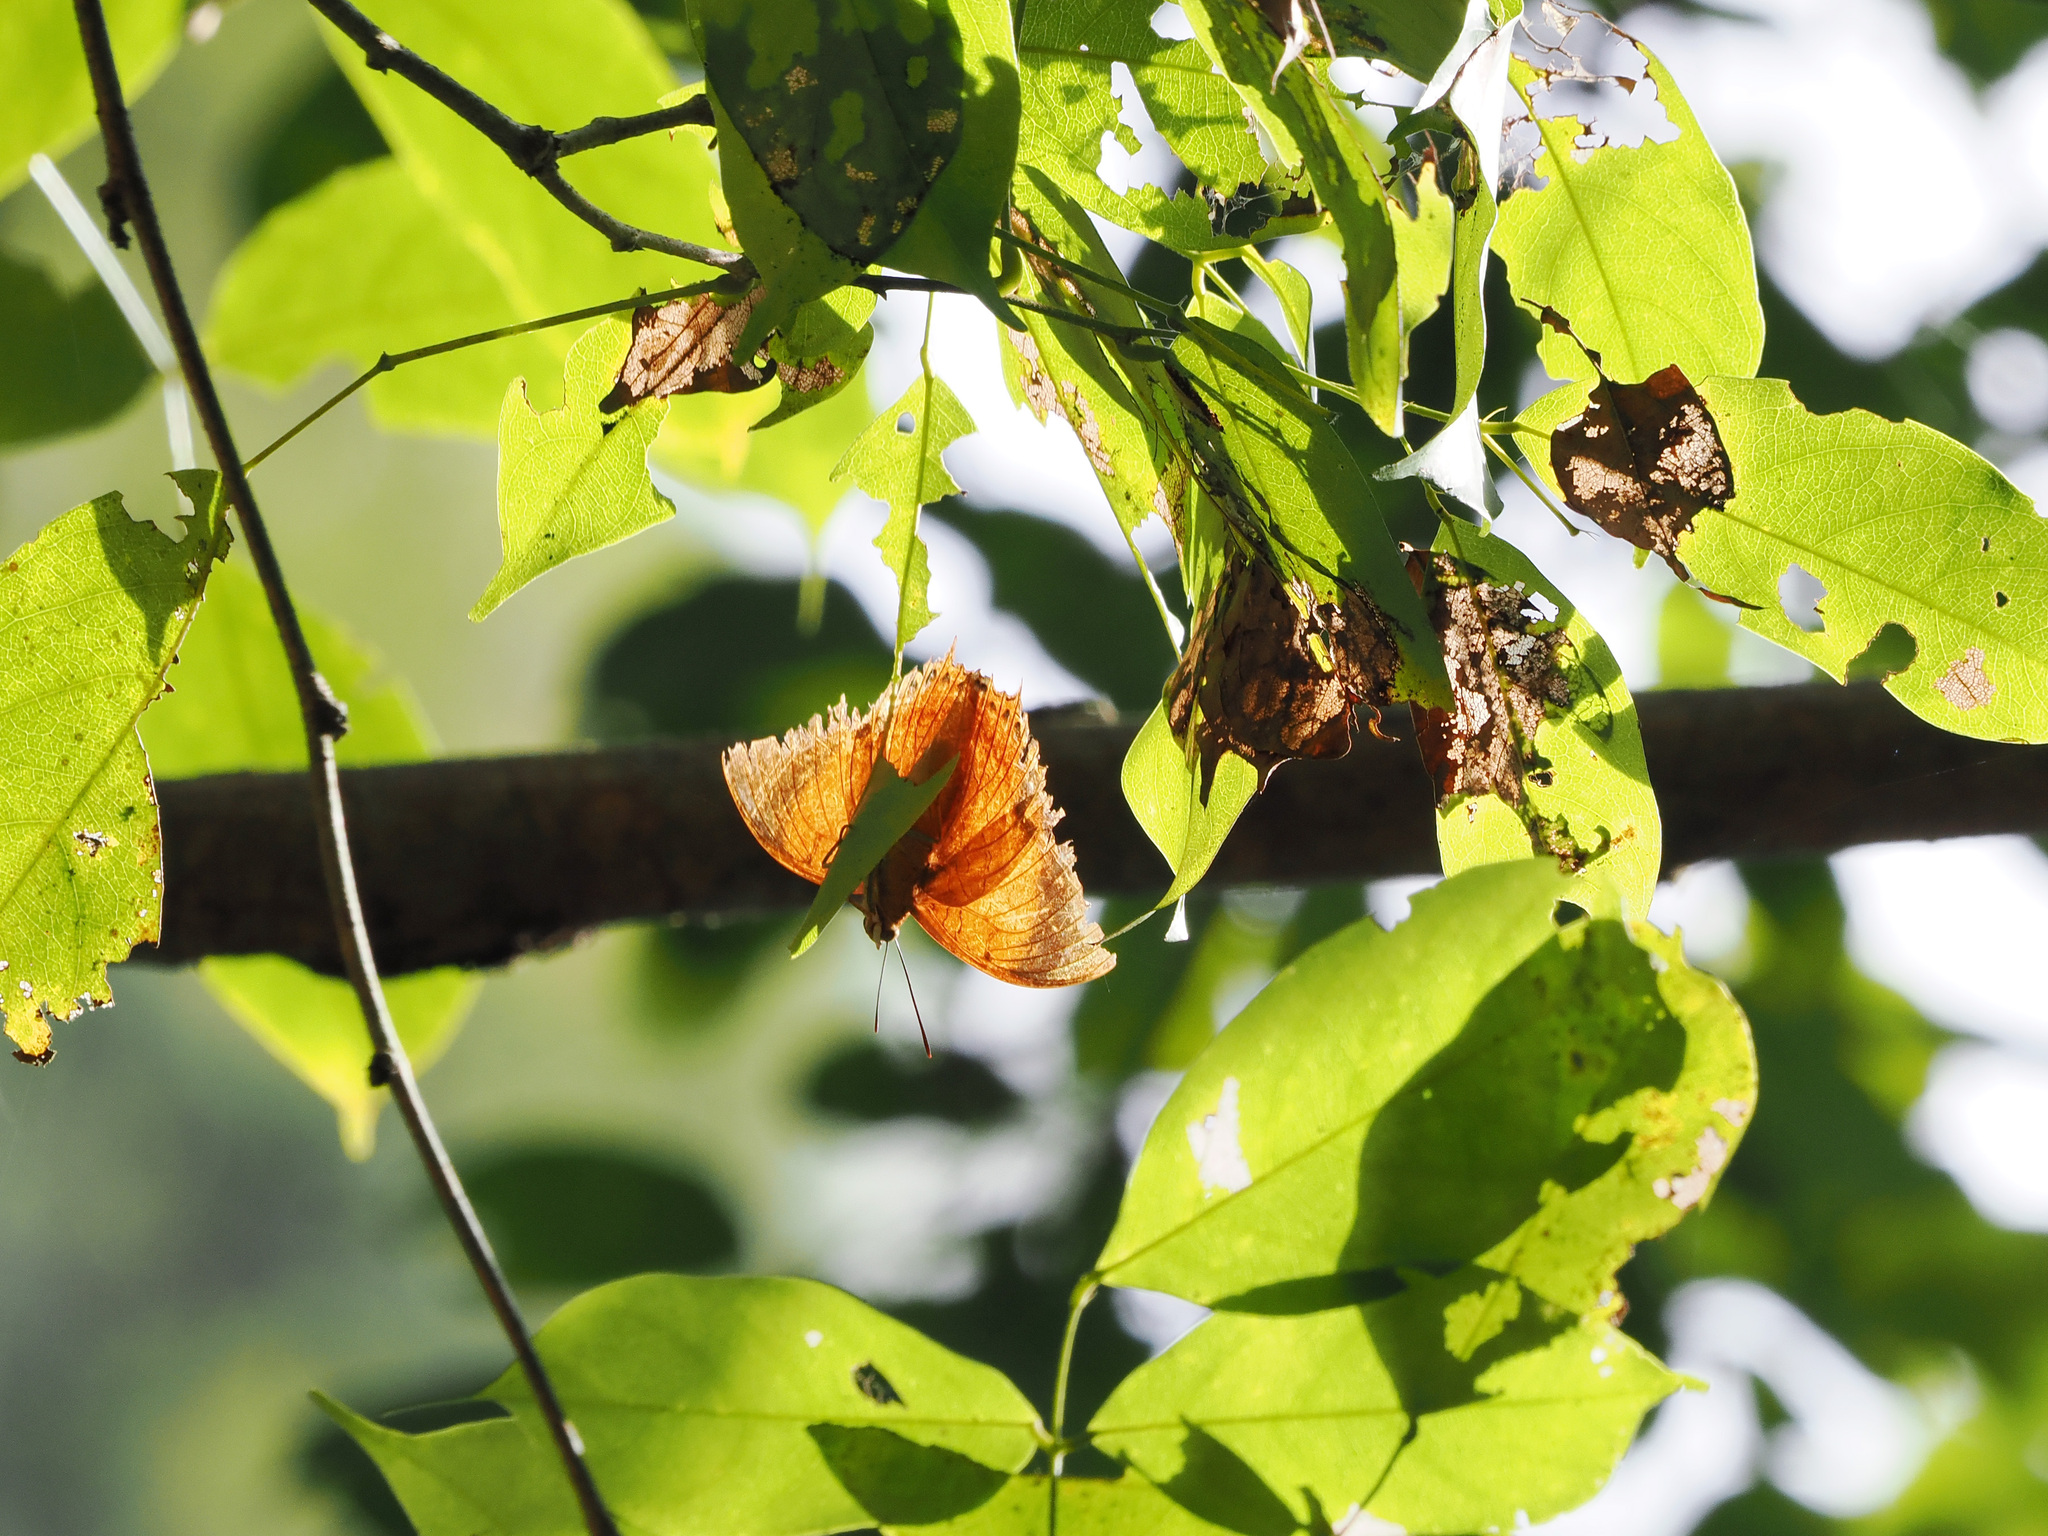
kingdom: Animalia
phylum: Arthropoda
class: Insecta
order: Lepidoptera
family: Nymphalidae
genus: Charaxes
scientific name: Charaxes affinis
